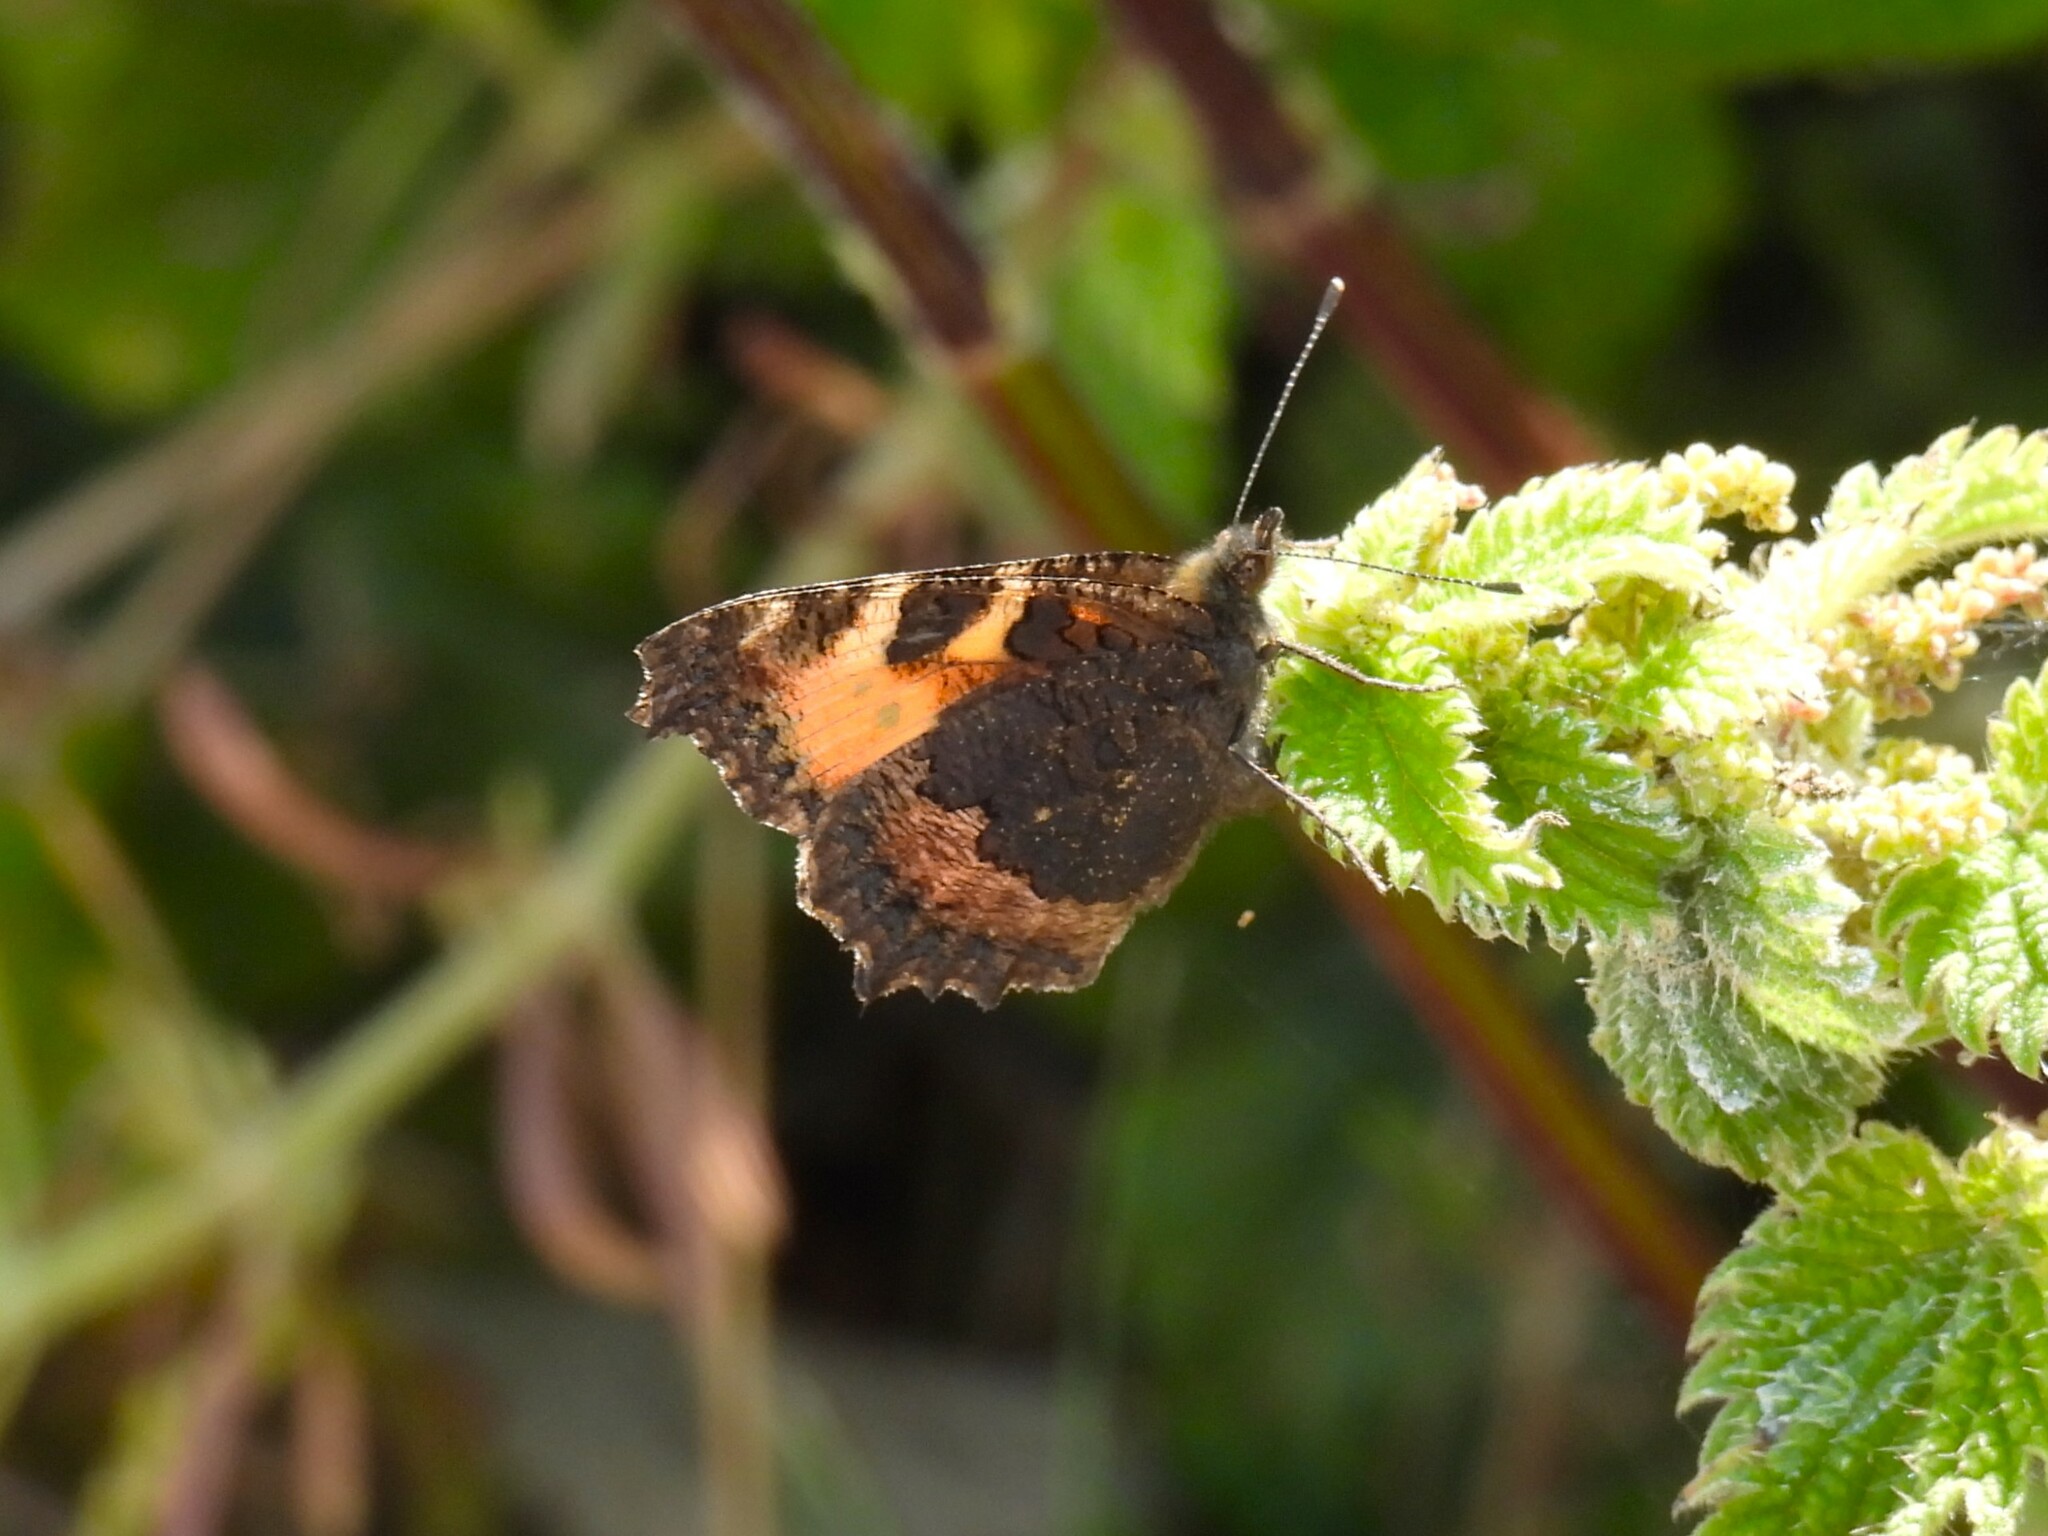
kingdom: Animalia
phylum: Arthropoda
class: Insecta
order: Lepidoptera
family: Nymphalidae
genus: Aglais
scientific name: Aglais urticae
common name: Small tortoiseshell
